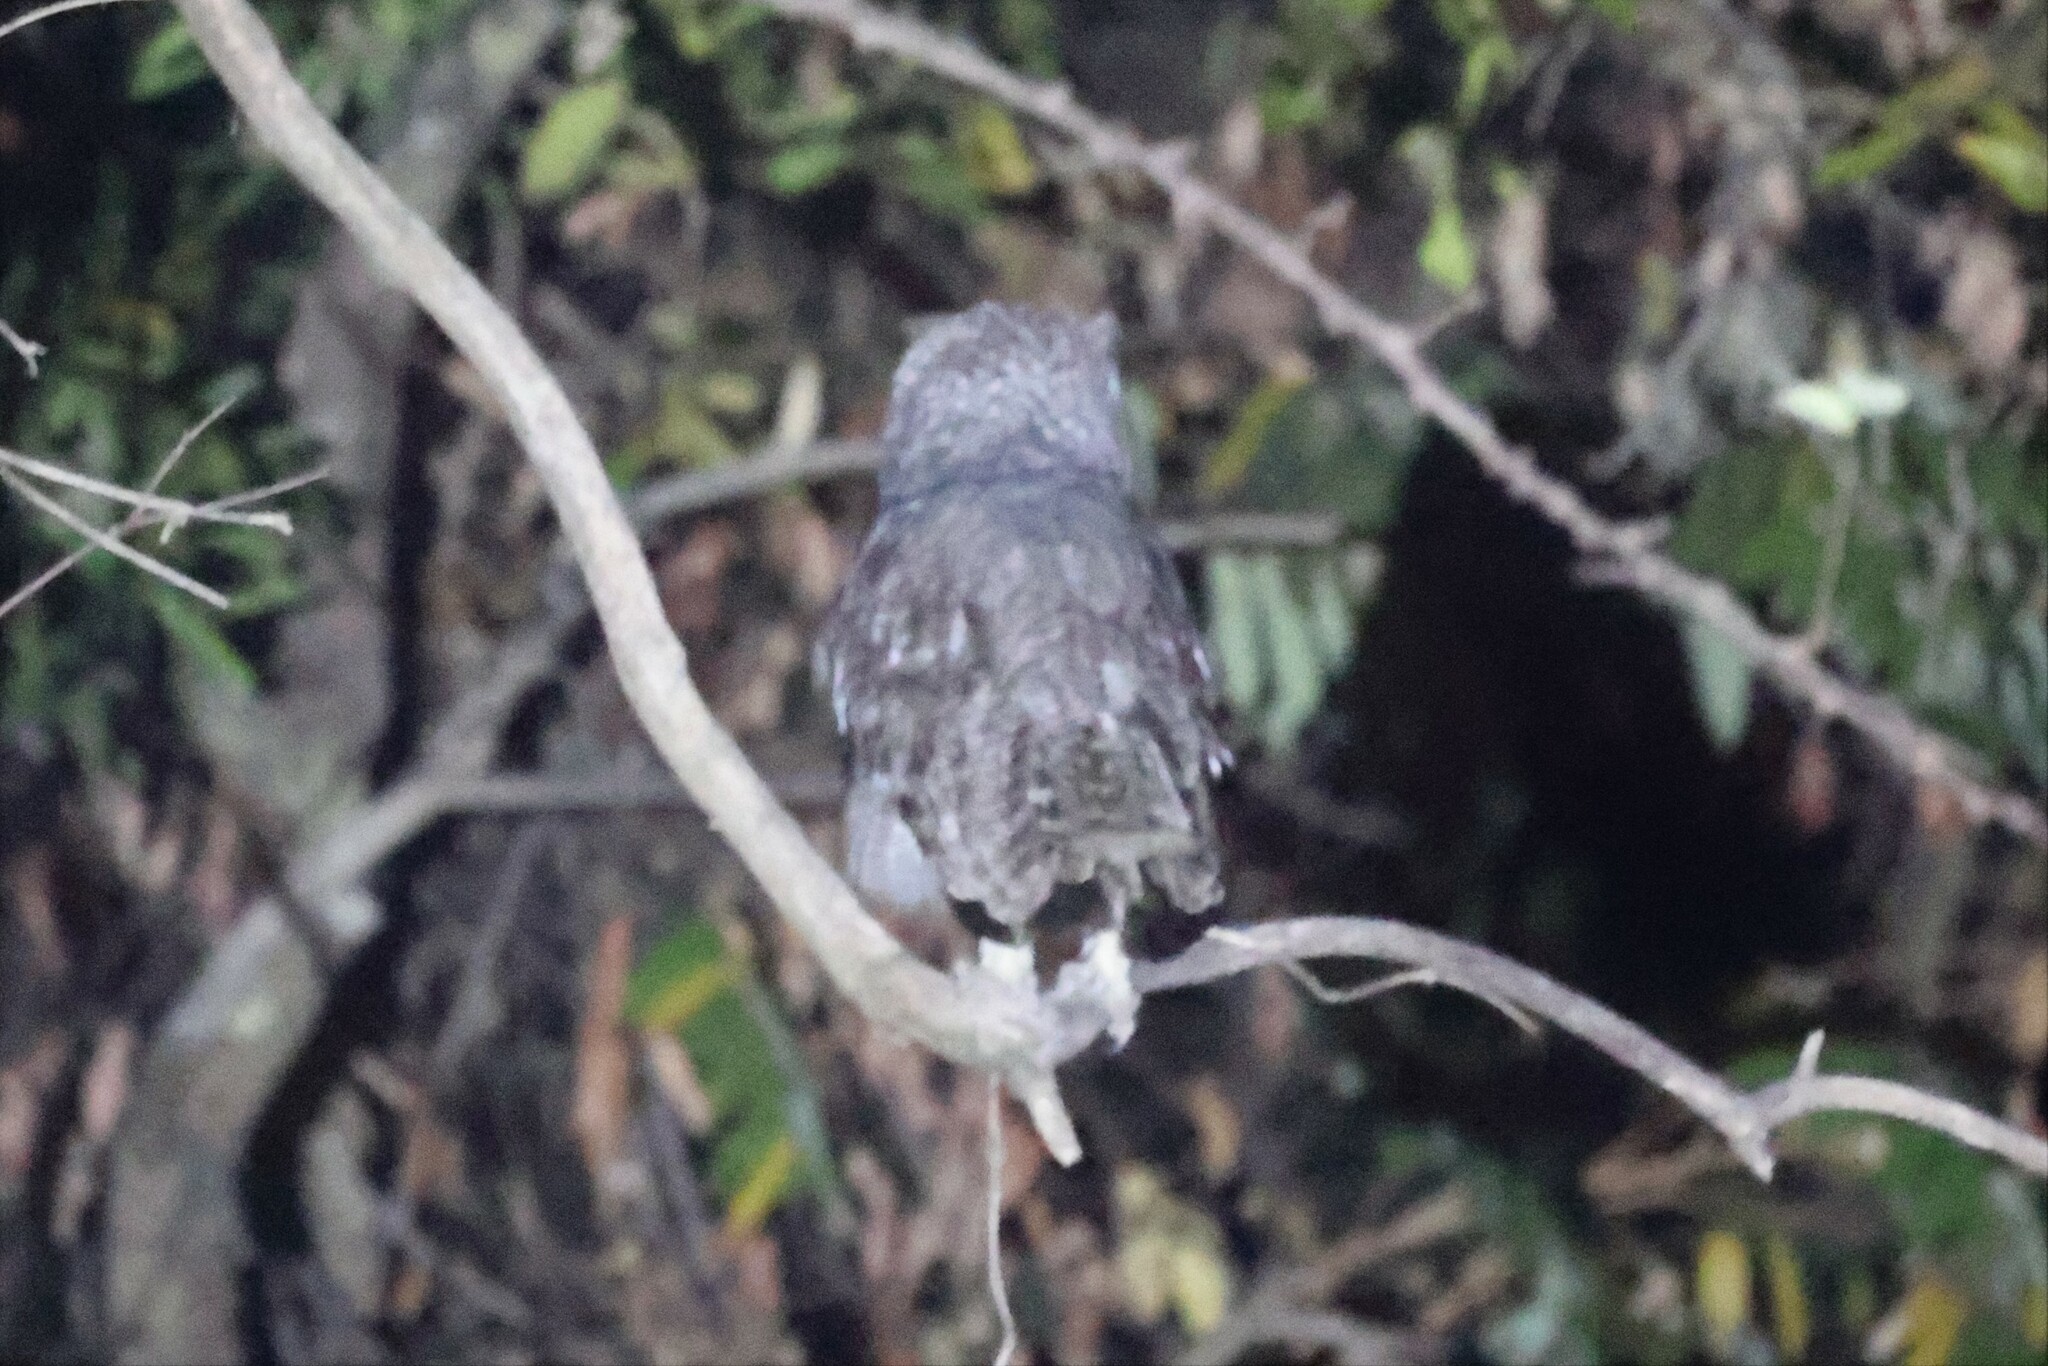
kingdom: Animalia
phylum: Chordata
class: Aves
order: Strigiformes
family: Strigidae
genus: Bubo
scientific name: Bubo cinerascens
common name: Greyish eagle-owl
